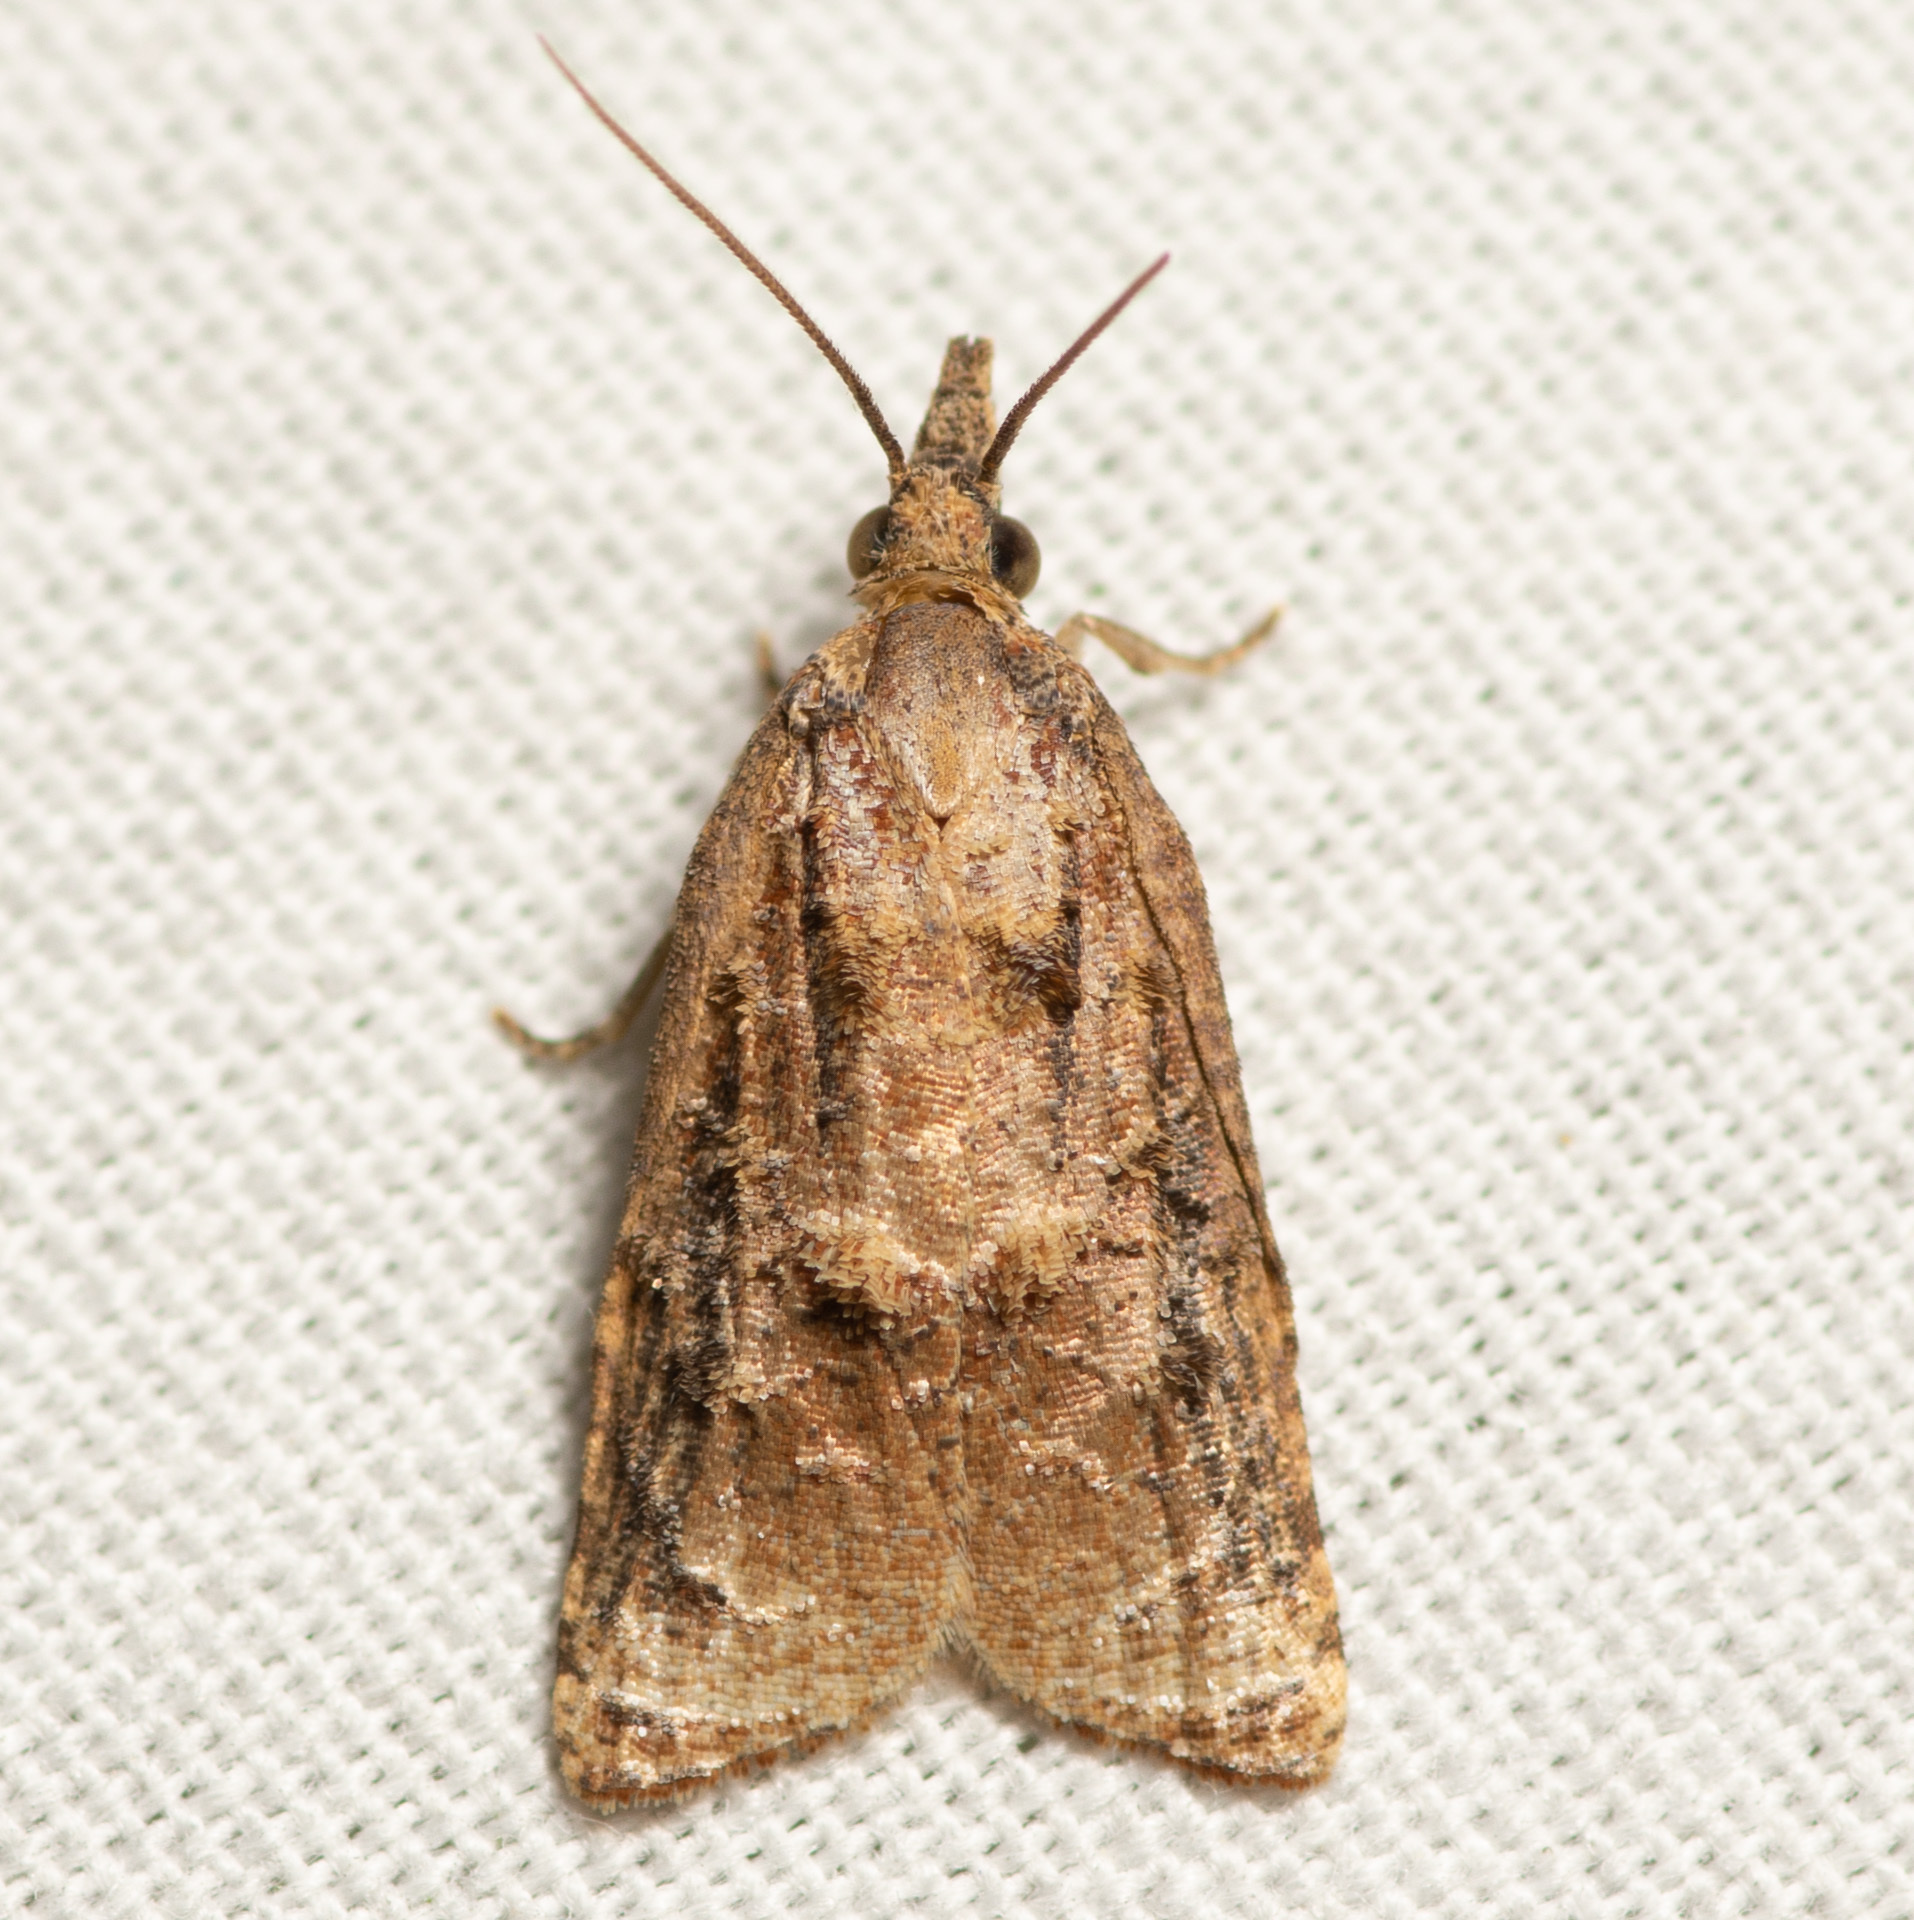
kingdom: Animalia
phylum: Arthropoda
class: Insecta
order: Lepidoptera
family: Tortricidae
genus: Platynota
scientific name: Platynota rostrana
